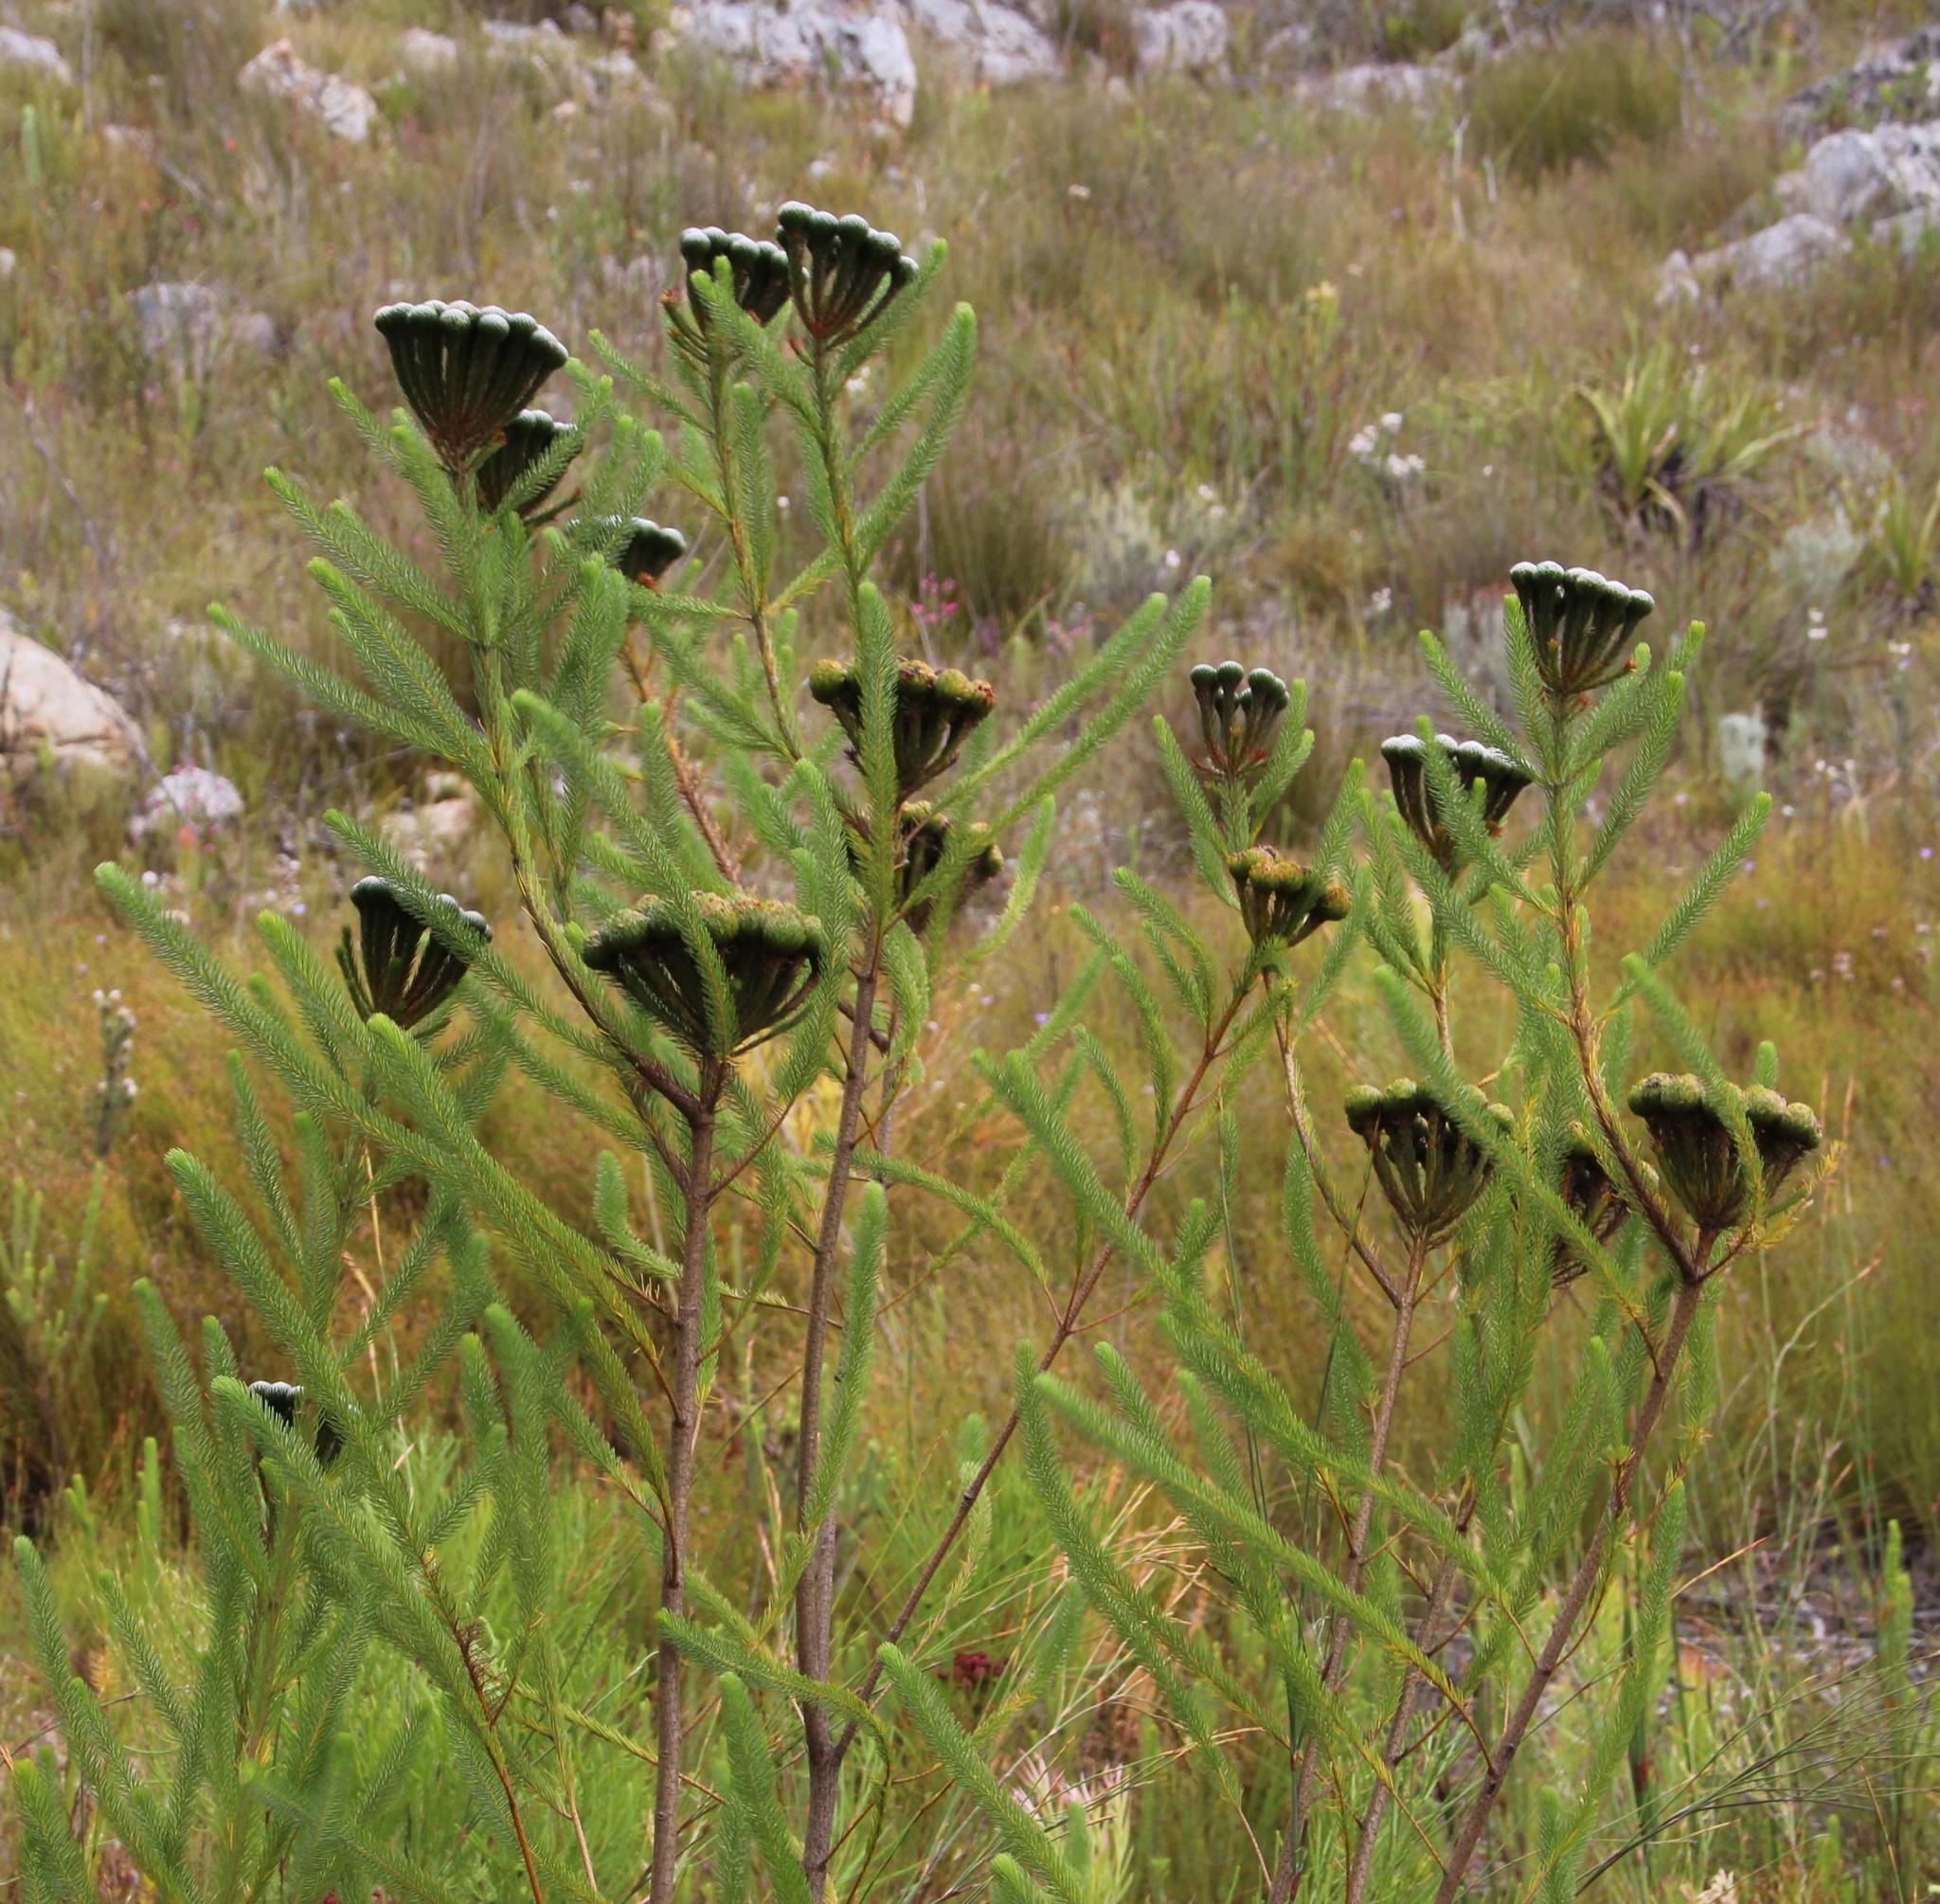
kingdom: Plantae
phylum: Tracheophyta
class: Magnoliopsida
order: Bruniales
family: Bruniaceae
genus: Berzelia
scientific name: Berzelia albiflora
